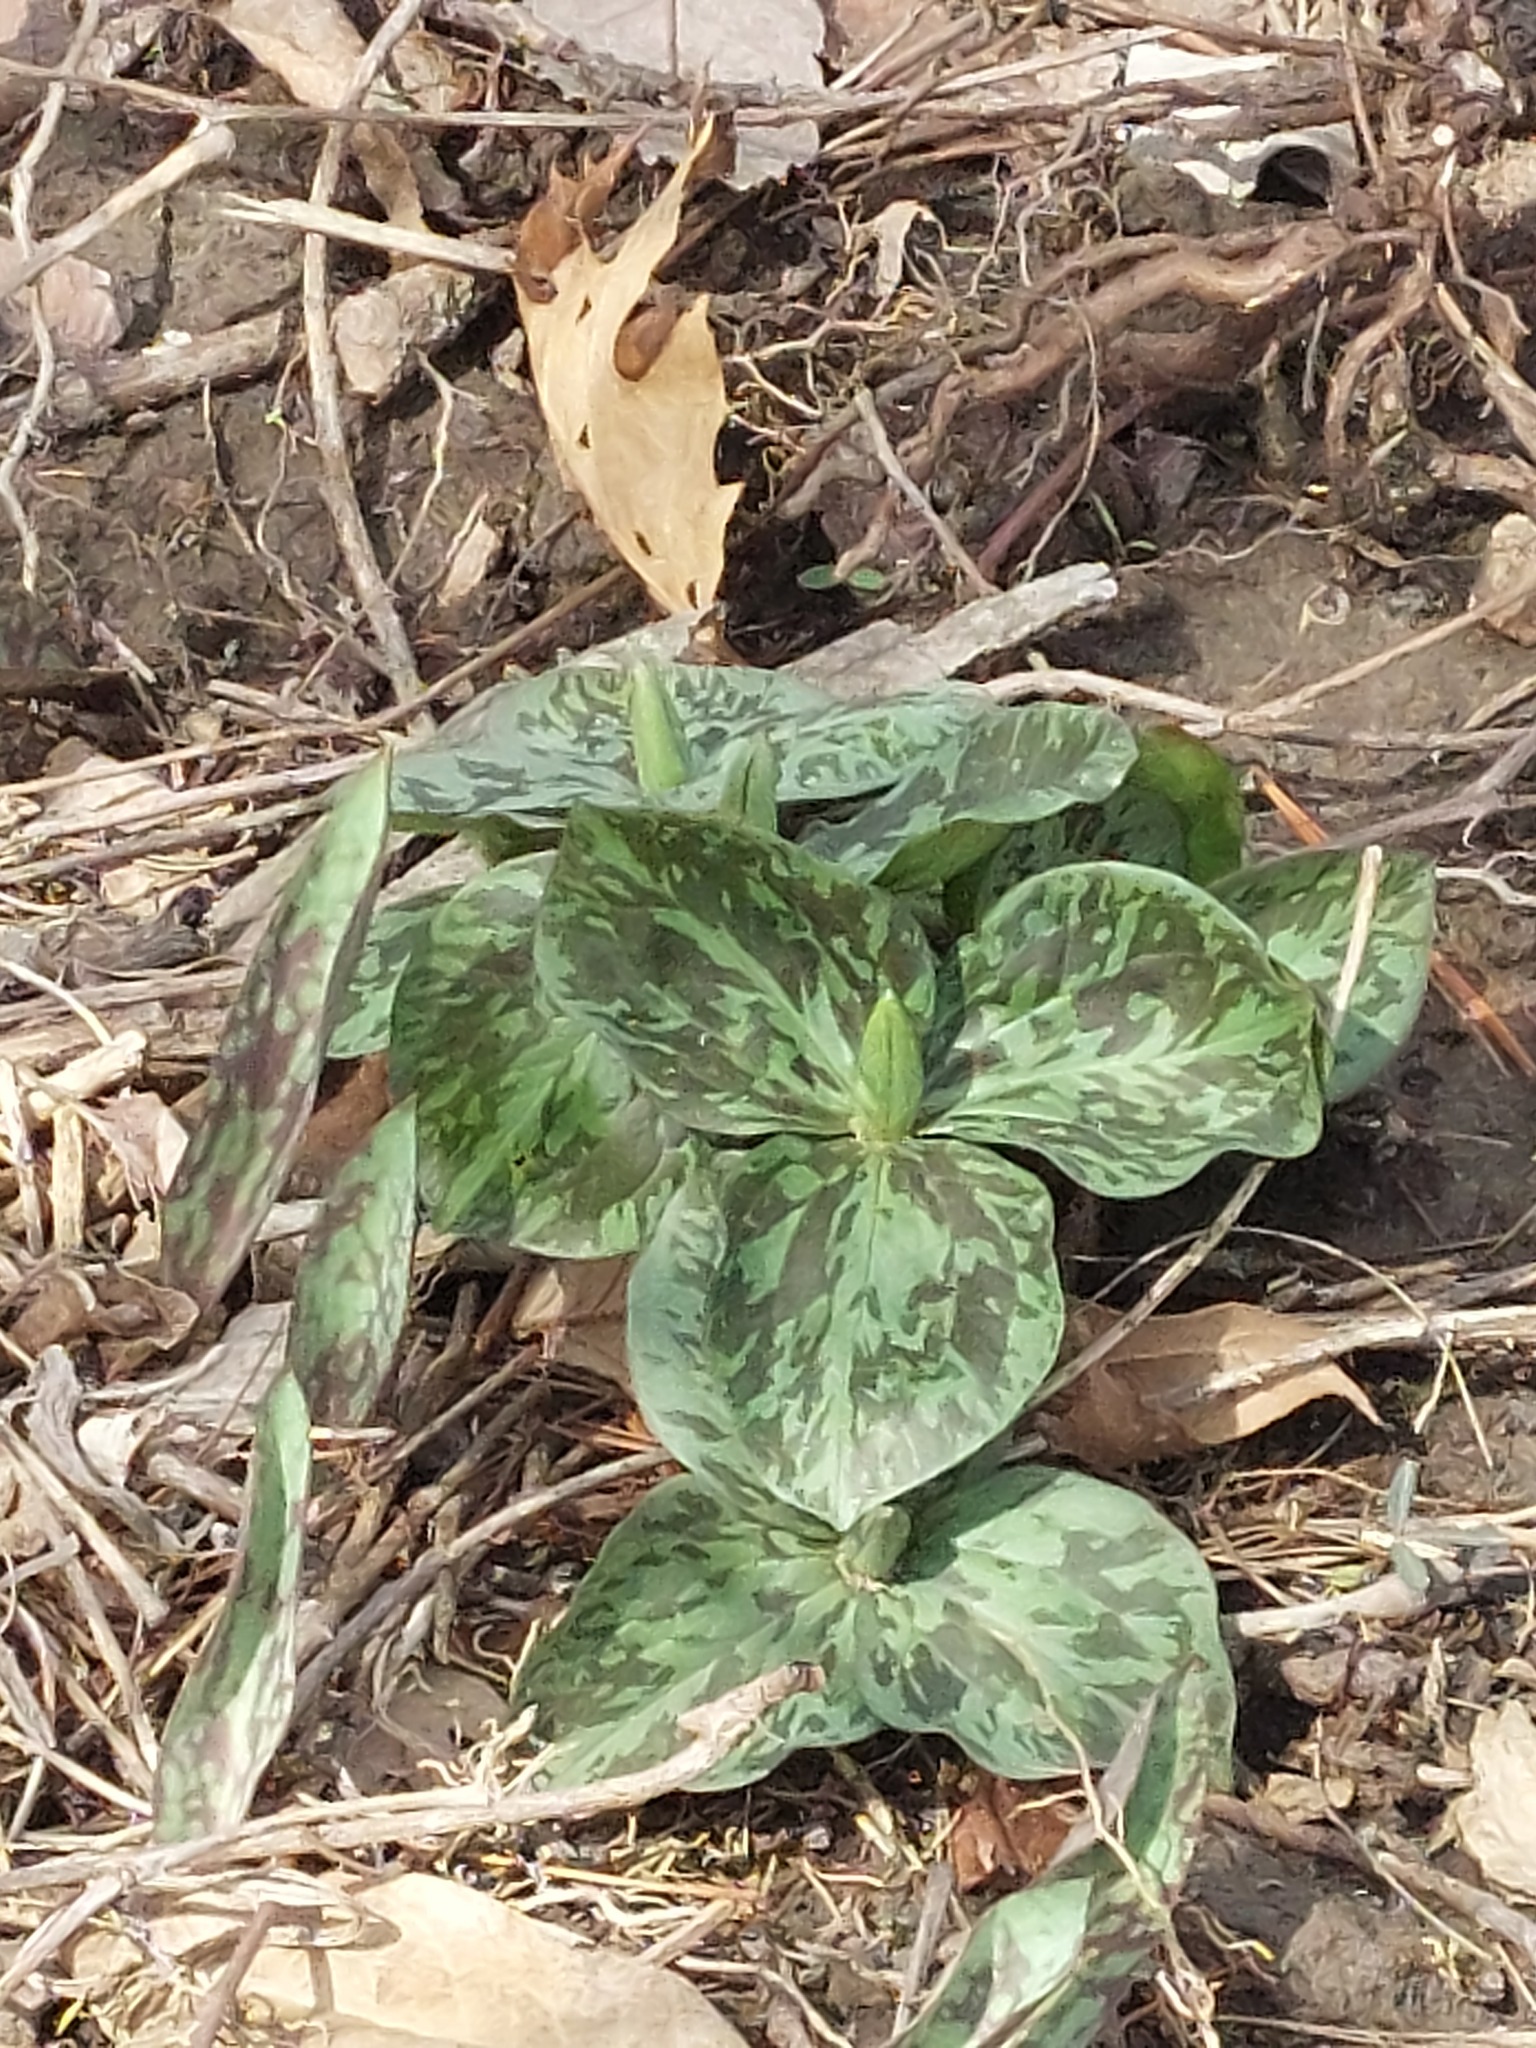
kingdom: Plantae
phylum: Tracheophyta
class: Liliopsida
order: Liliales
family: Melanthiaceae
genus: Trillium
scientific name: Trillium sessile
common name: Sessile trillium
